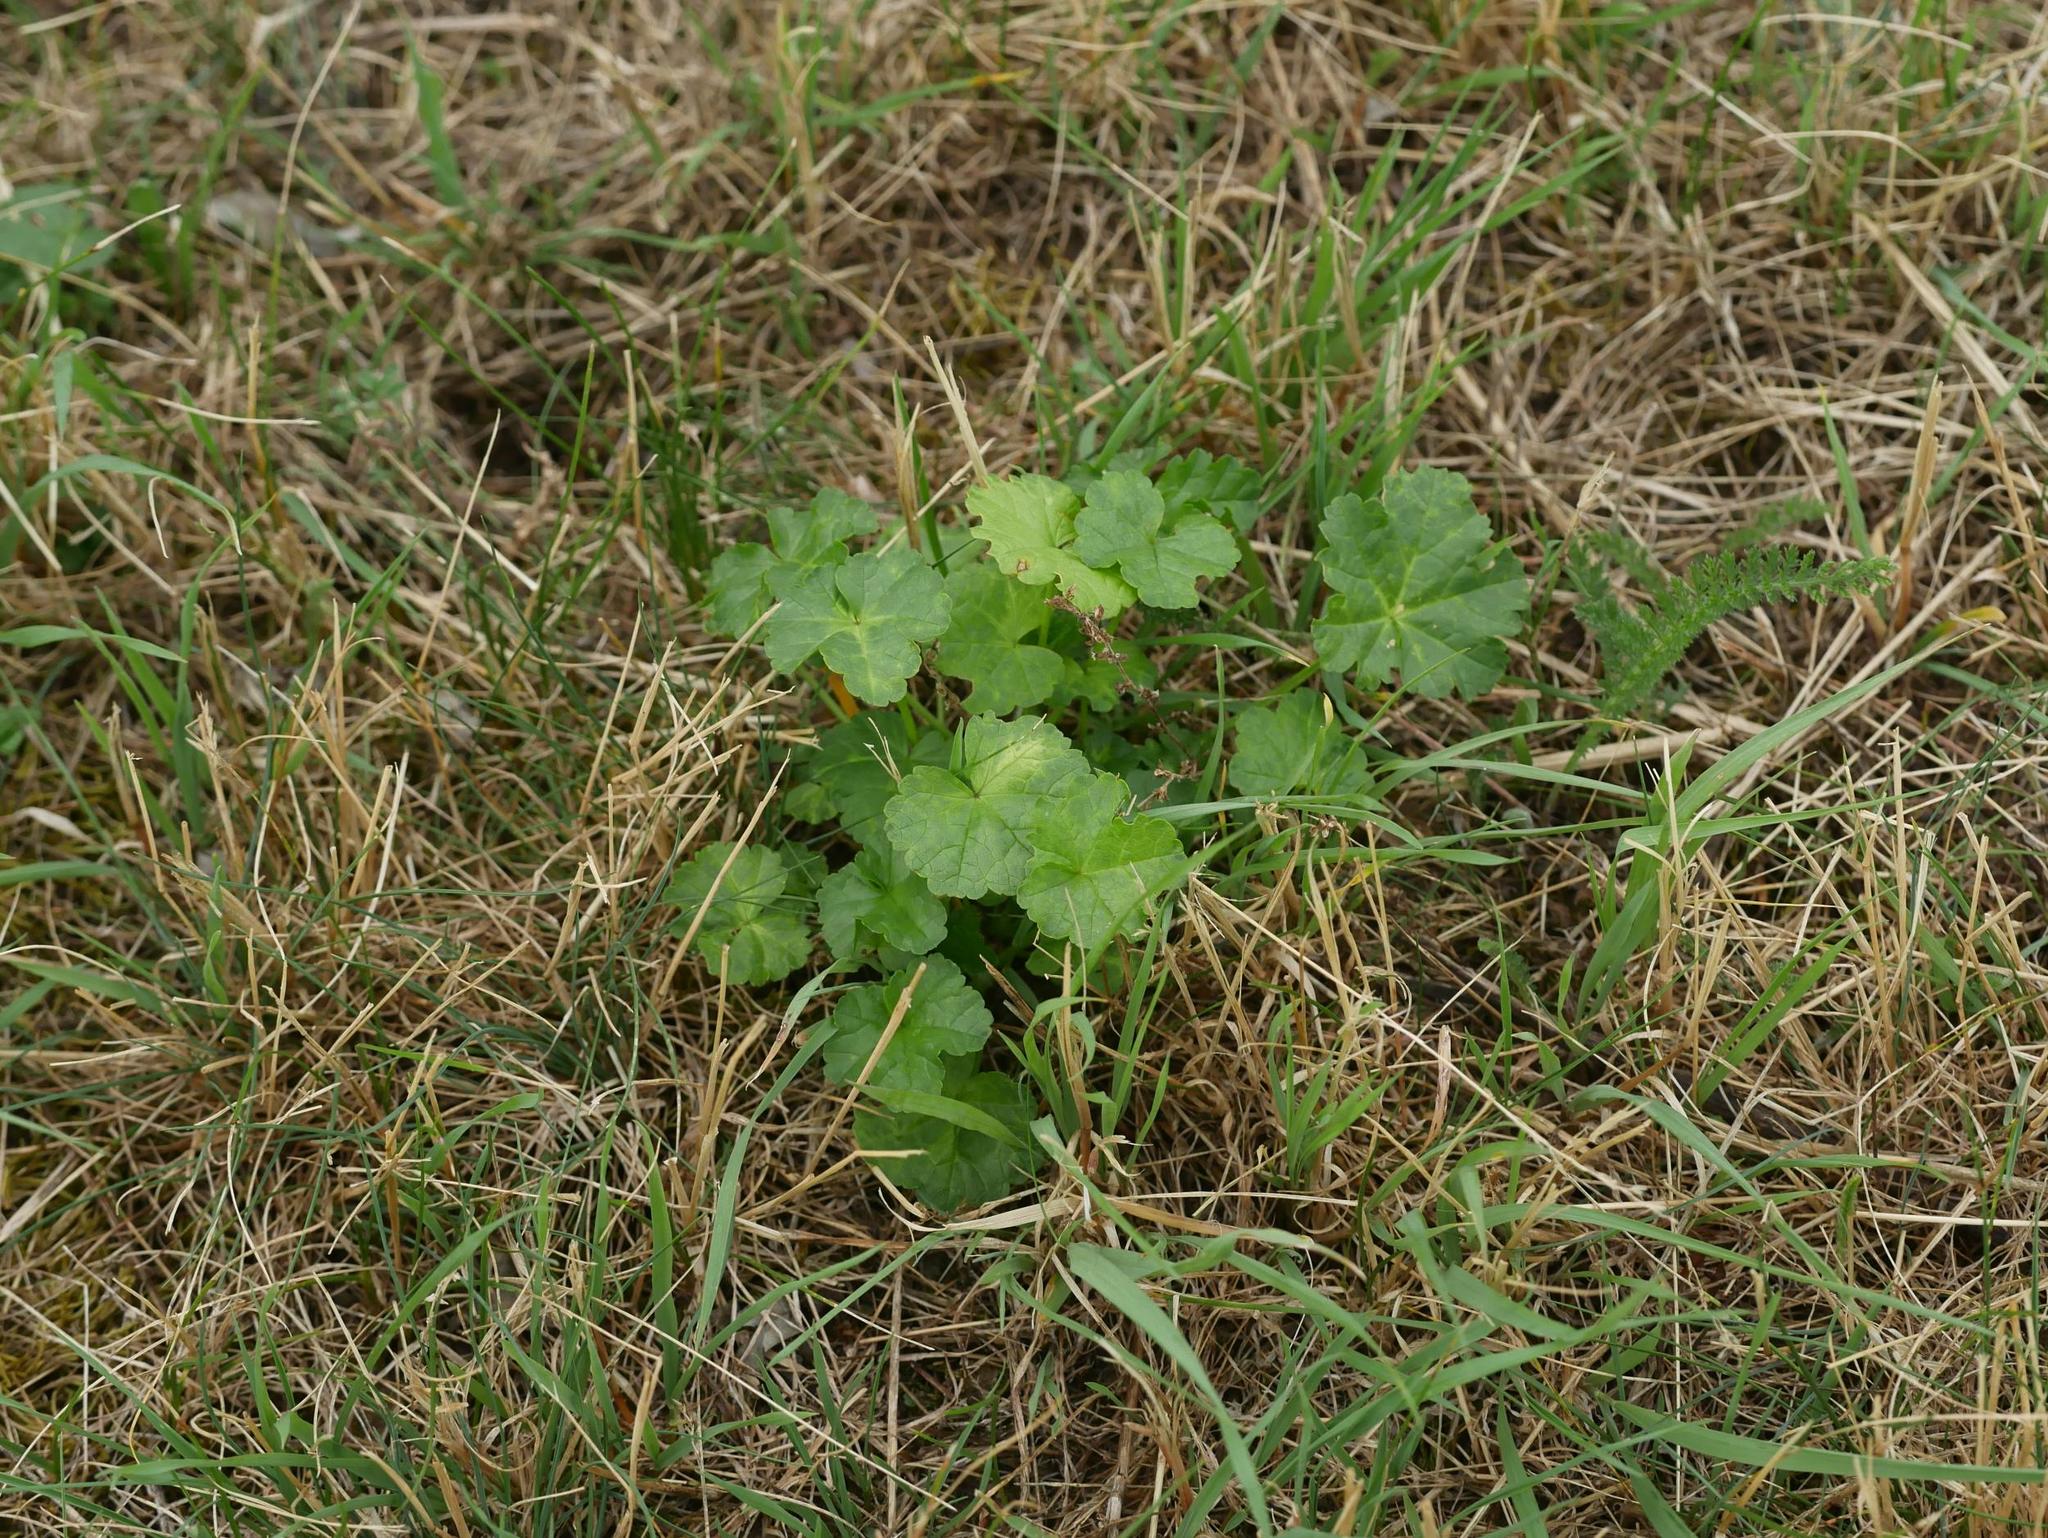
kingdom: Plantae
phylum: Tracheophyta
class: Magnoliopsida
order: Malvales
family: Malvaceae
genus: Malva
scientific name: Malva sylvestris
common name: Common mallow
